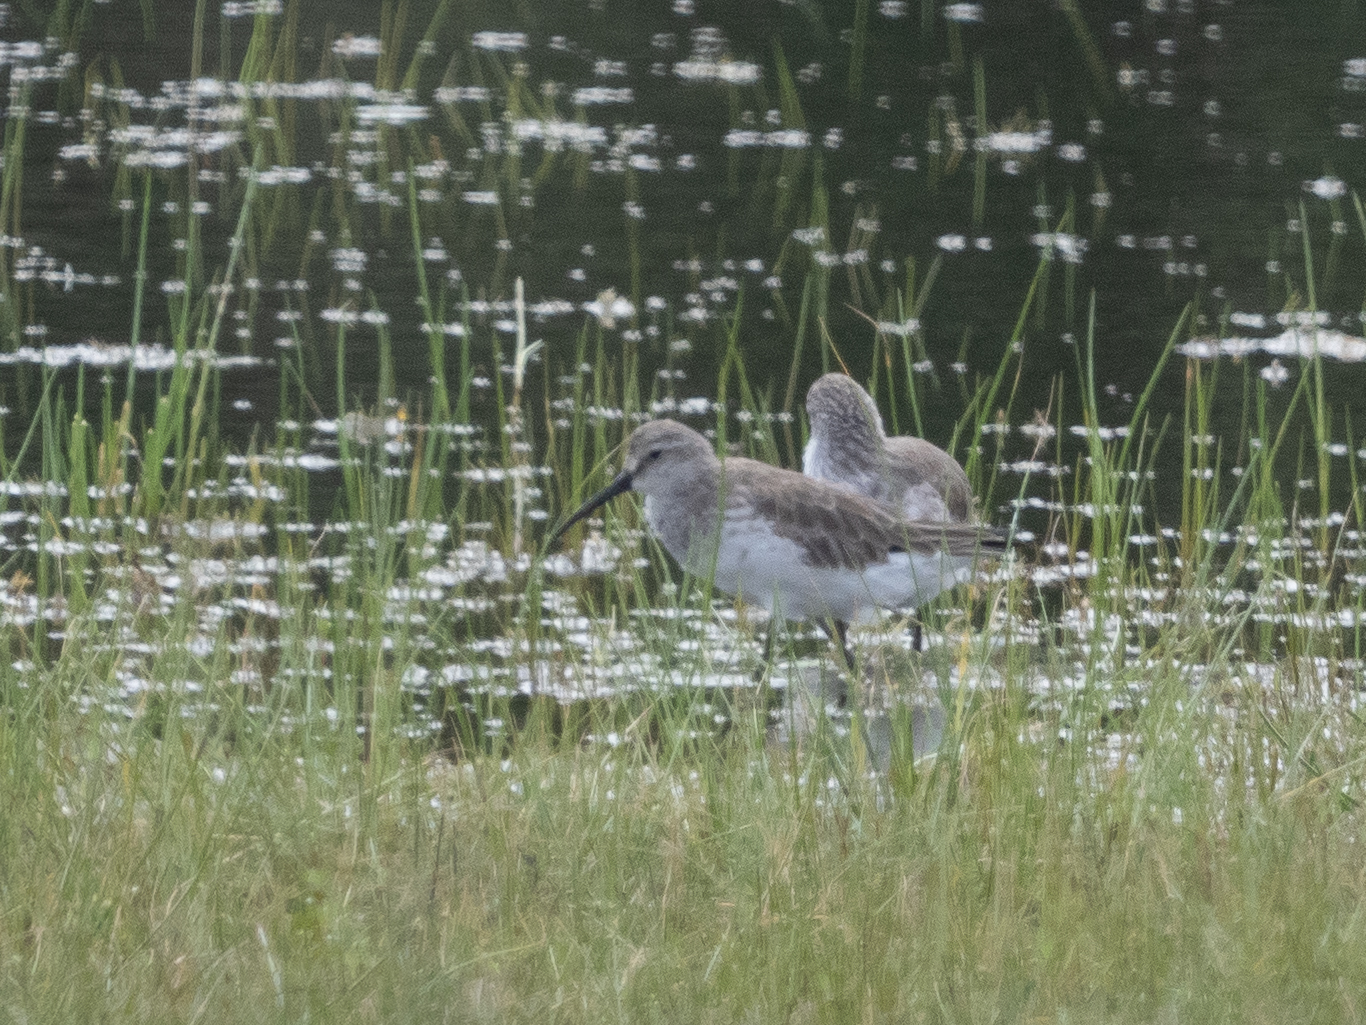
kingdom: Animalia
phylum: Chordata
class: Aves
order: Charadriiformes
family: Scolopacidae
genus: Calidris
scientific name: Calidris ferruginea
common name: Curlew sandpiper
